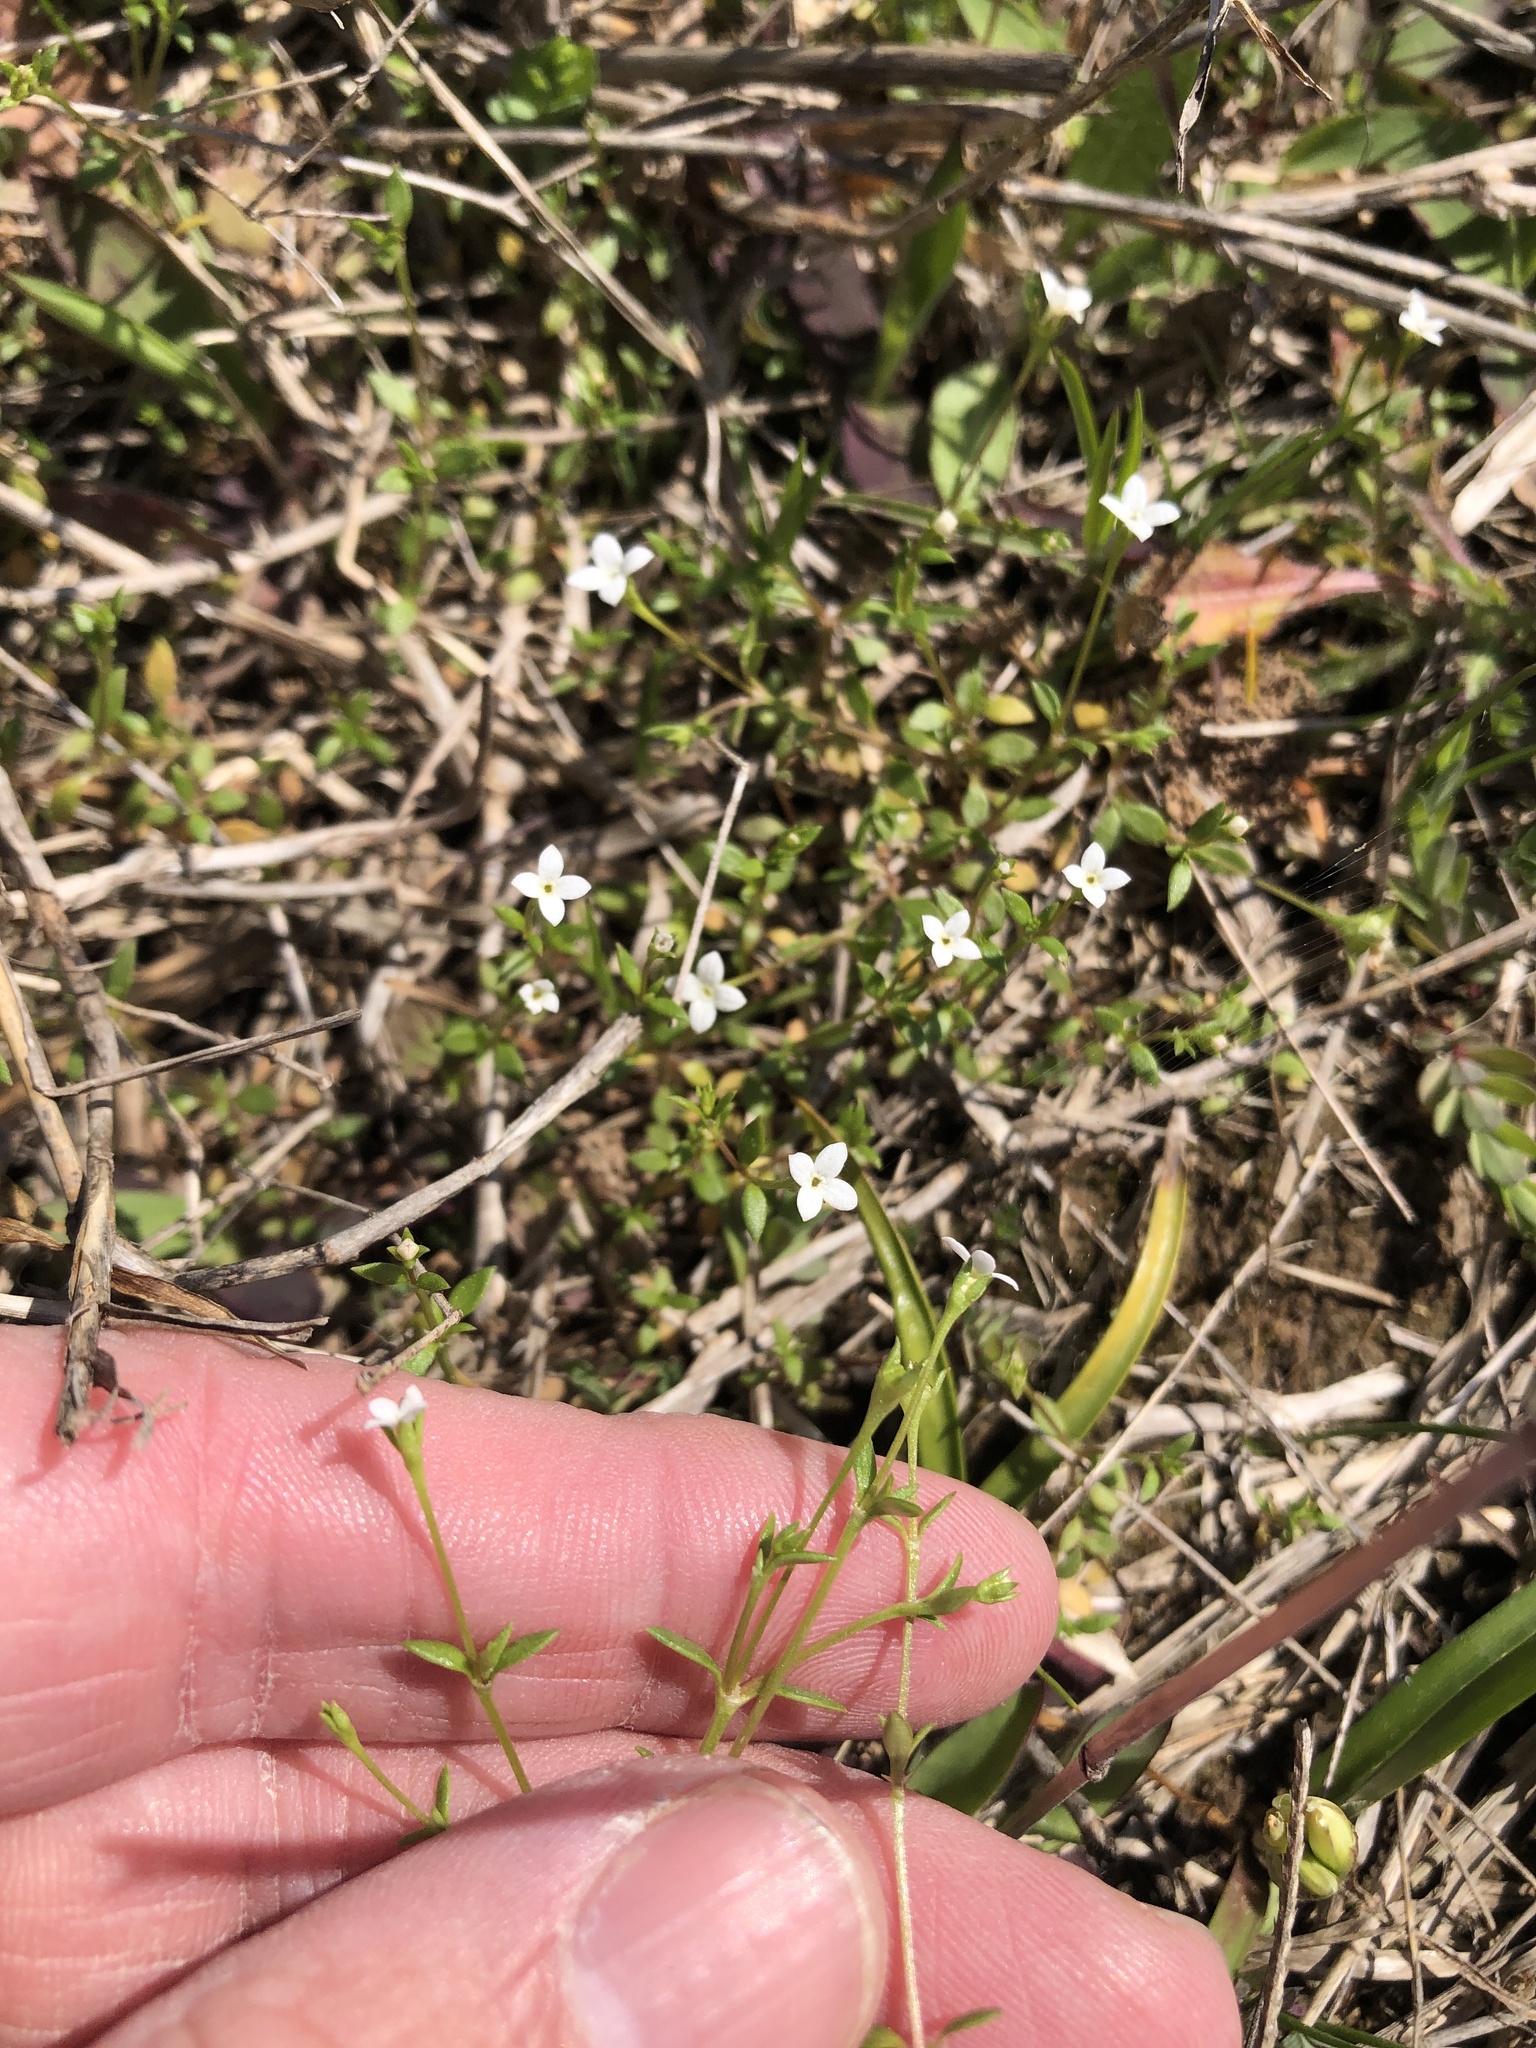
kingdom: Plantae
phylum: Tracheophyta
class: Magnoliopsida
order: Gentianales
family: Rubiaceae
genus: Houstonia
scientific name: Houstonia micrantha
